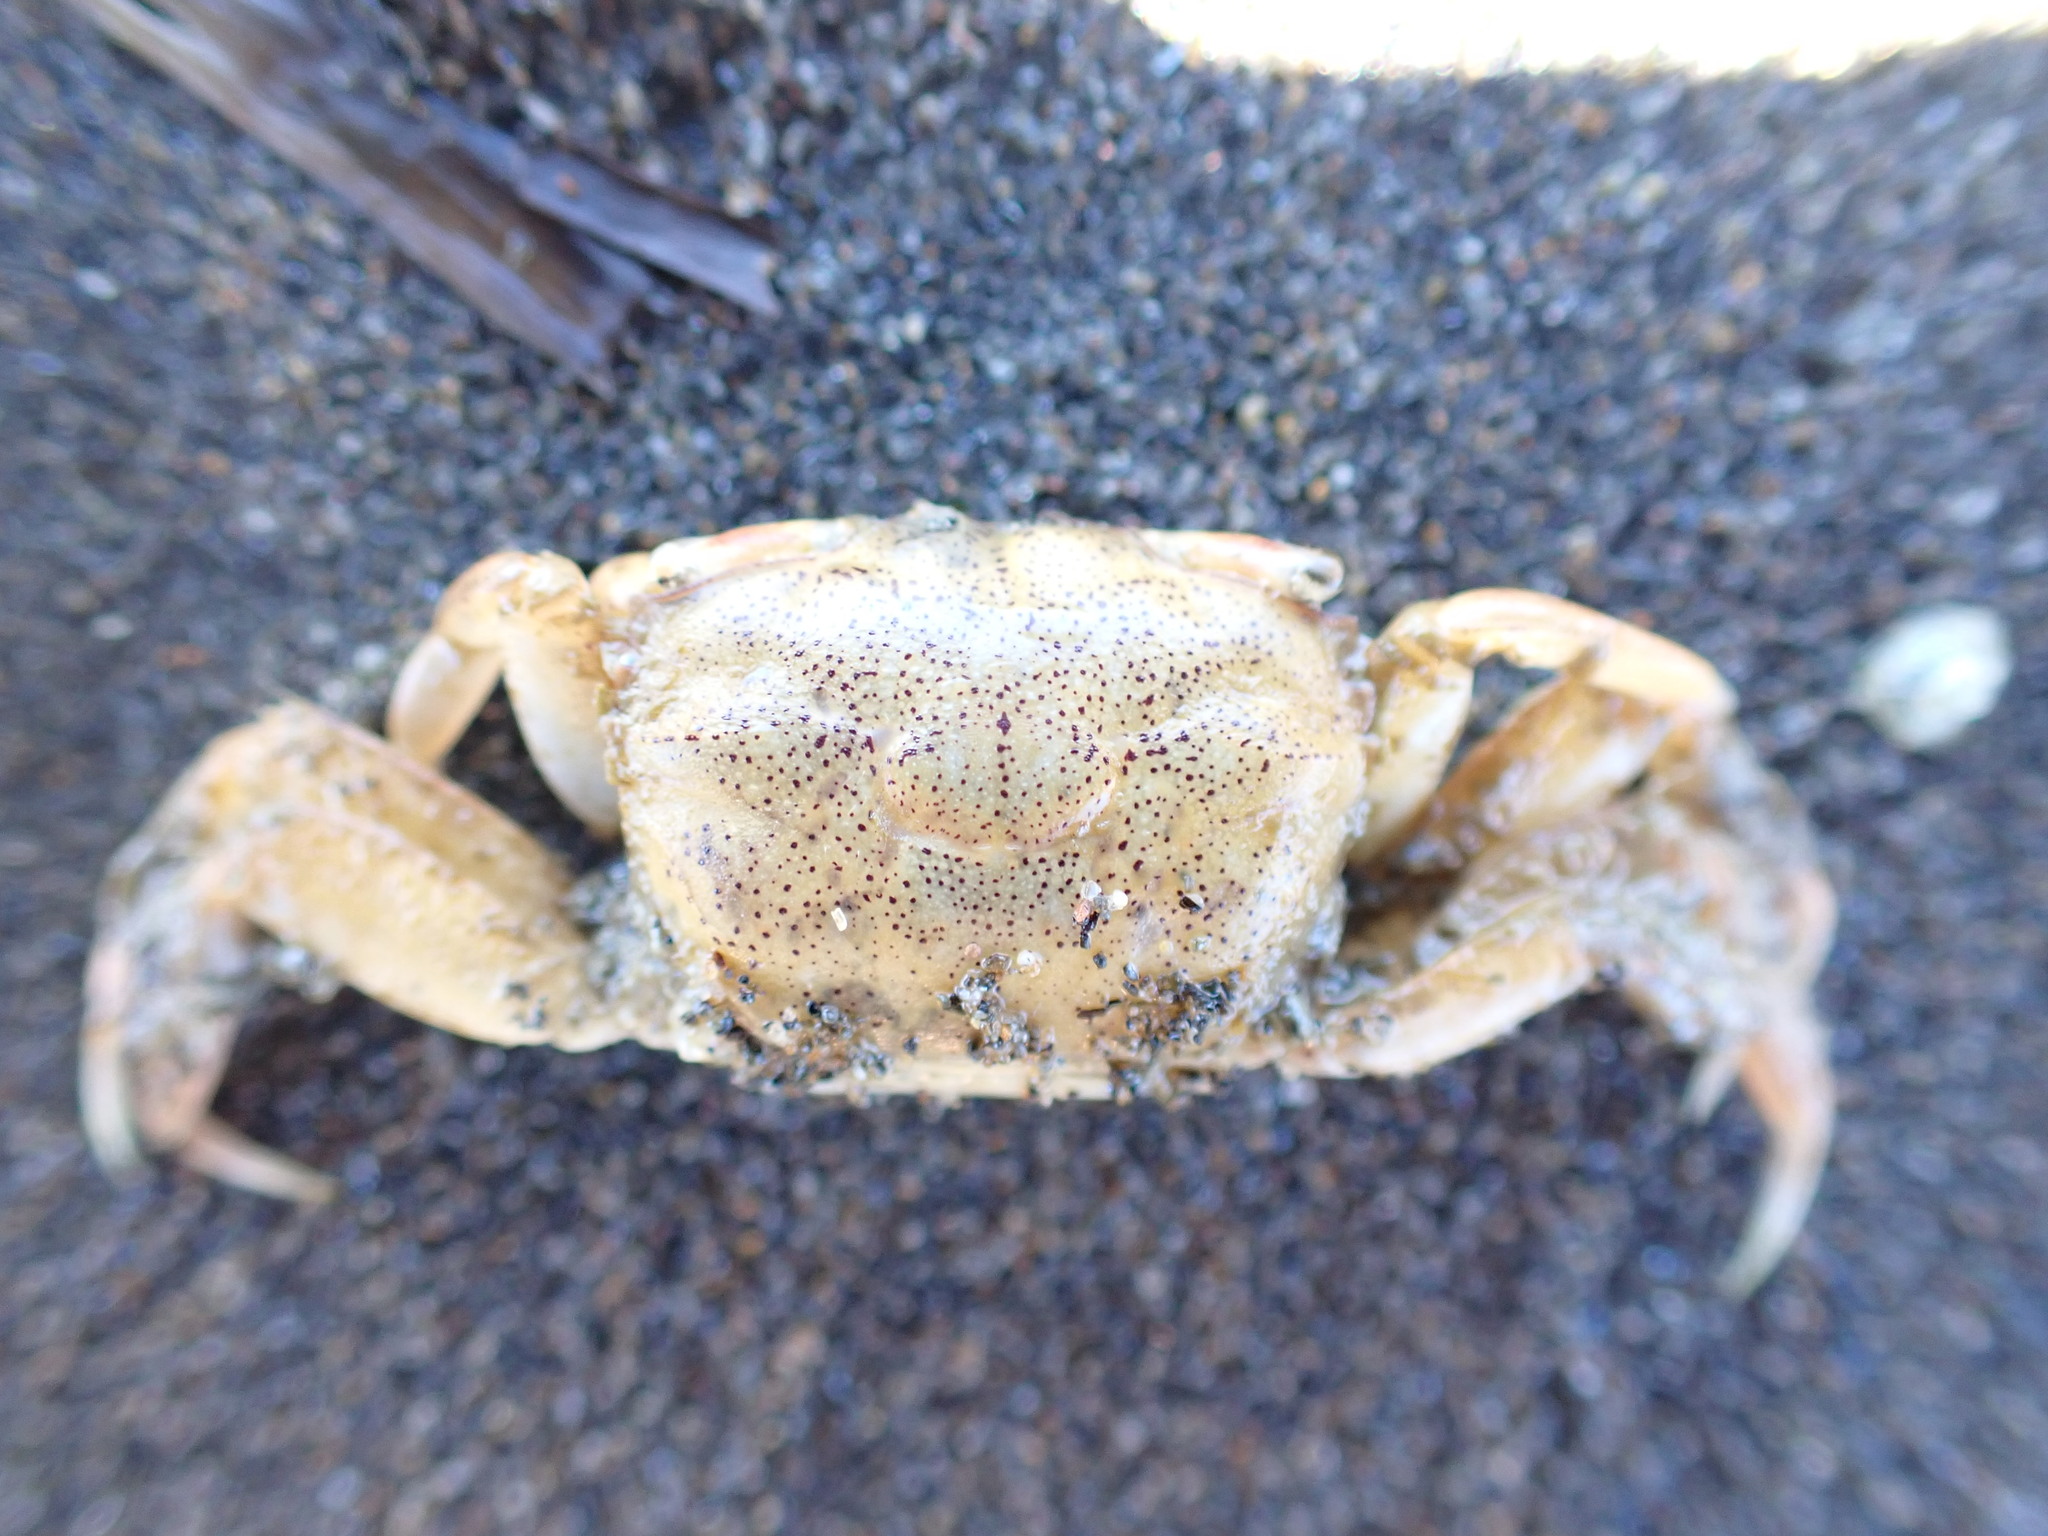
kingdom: Animalia
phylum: Arthropoda
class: Malacostraca
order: Decapoda
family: Macrophthalmidae
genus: Hemiplax
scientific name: Hemiplax hirtipes
